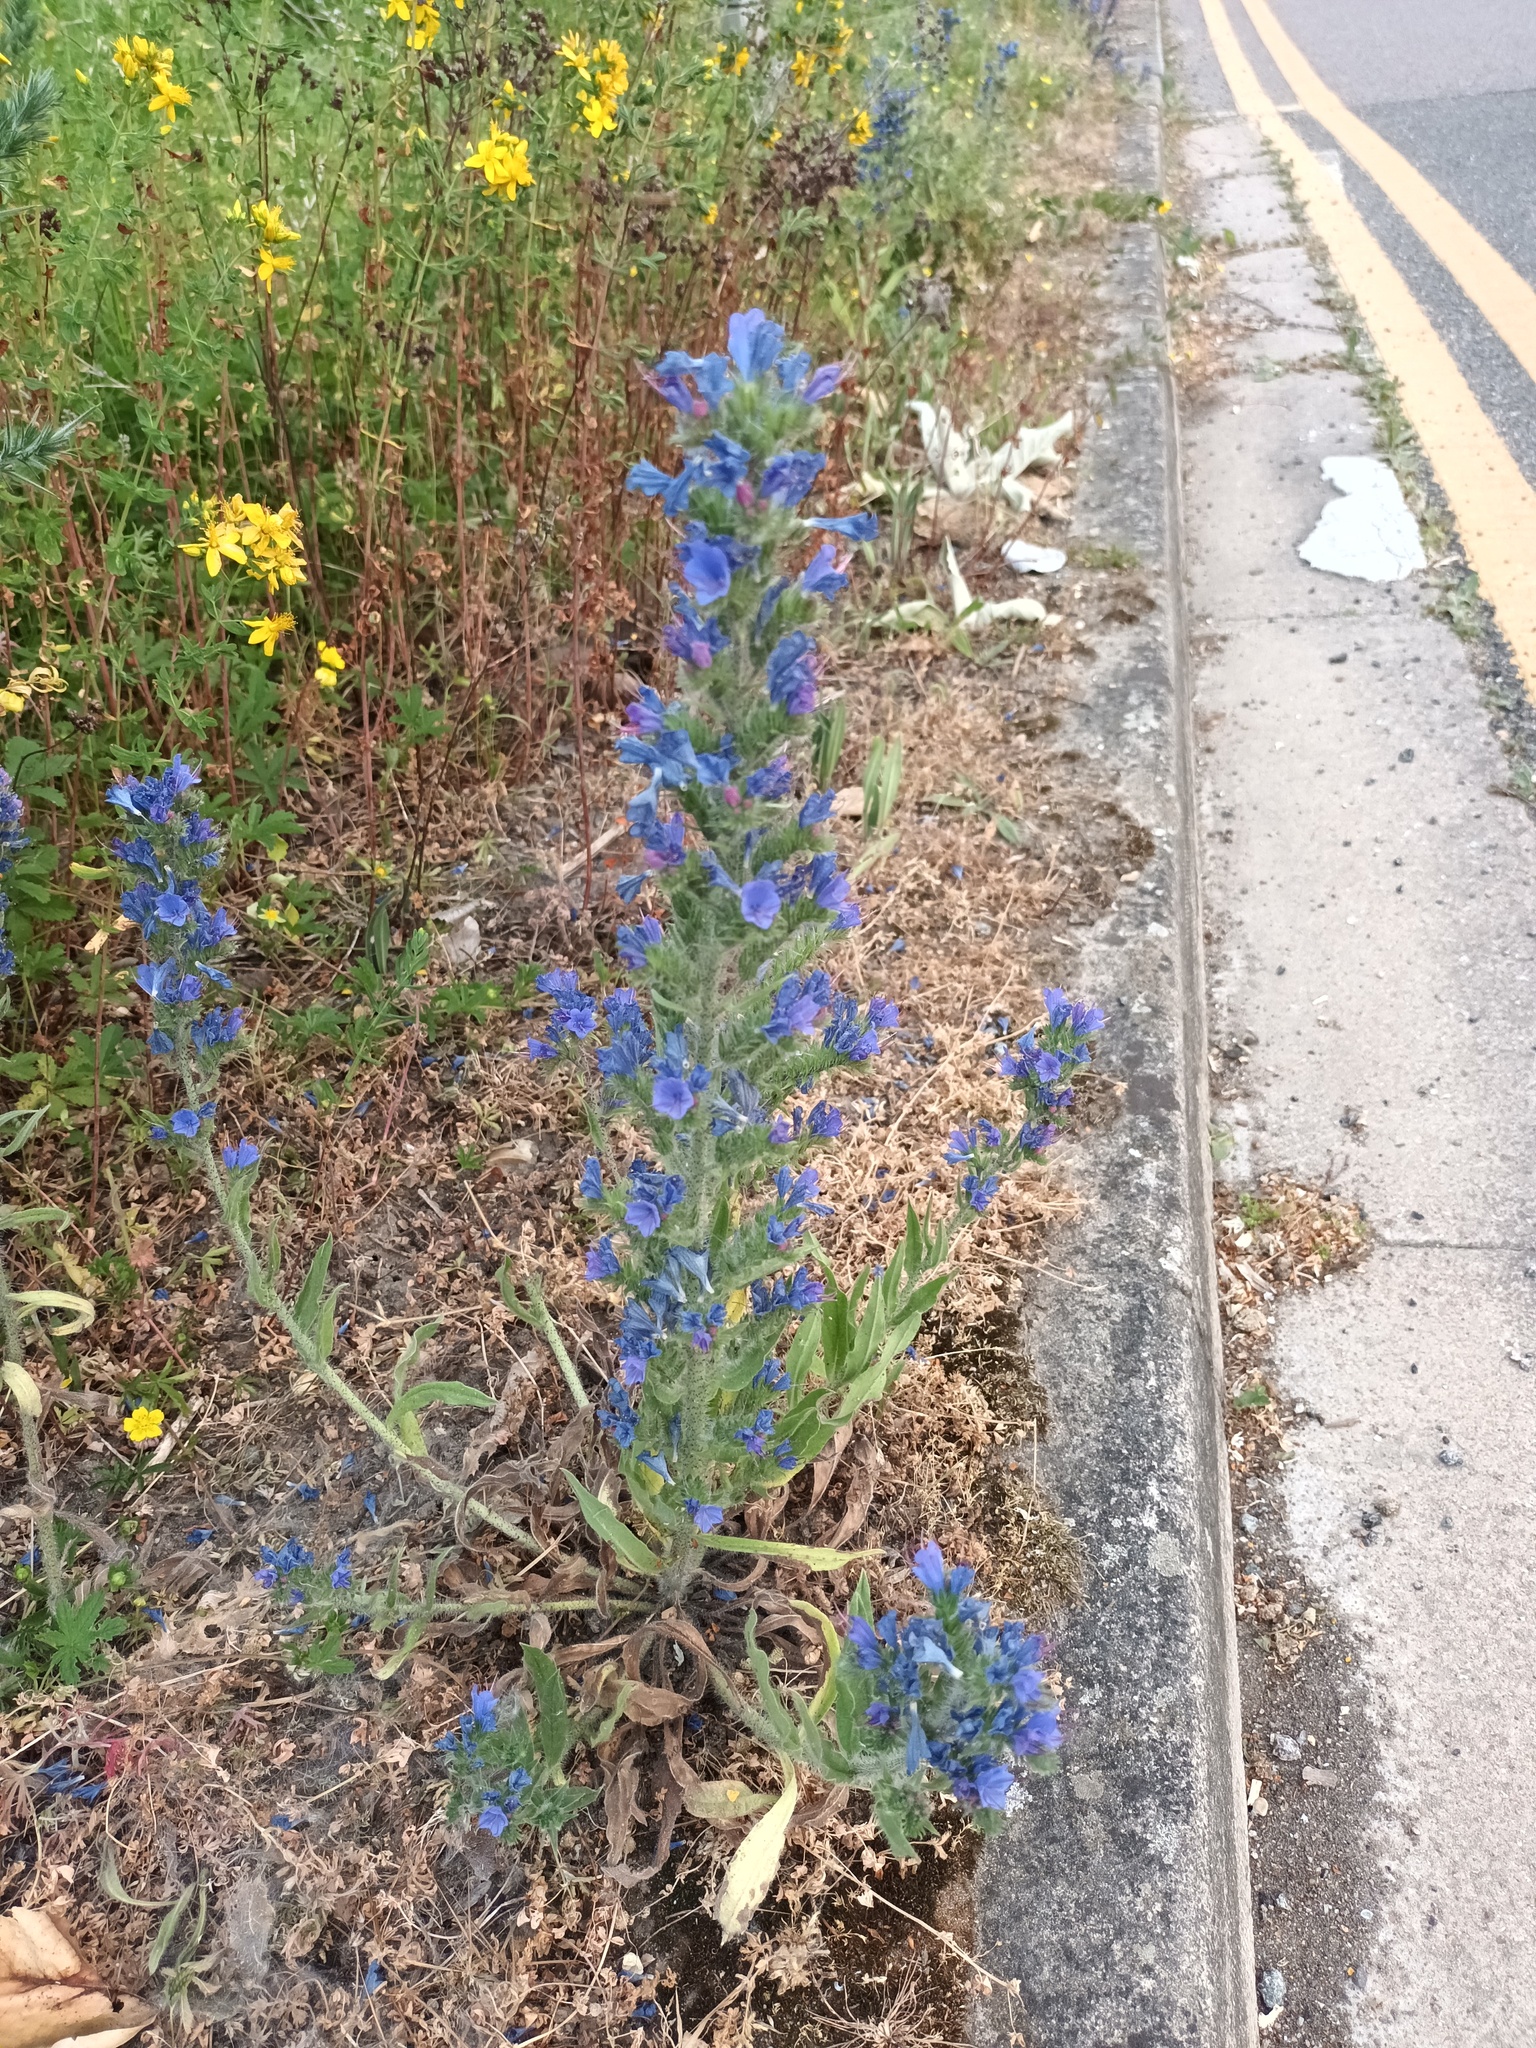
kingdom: Plantae
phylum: Tracheophyta
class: Magnoliopsida
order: Boraginales
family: Boraginaceae
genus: Echium
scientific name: Echium vulgare
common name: Common viper's bugloss
